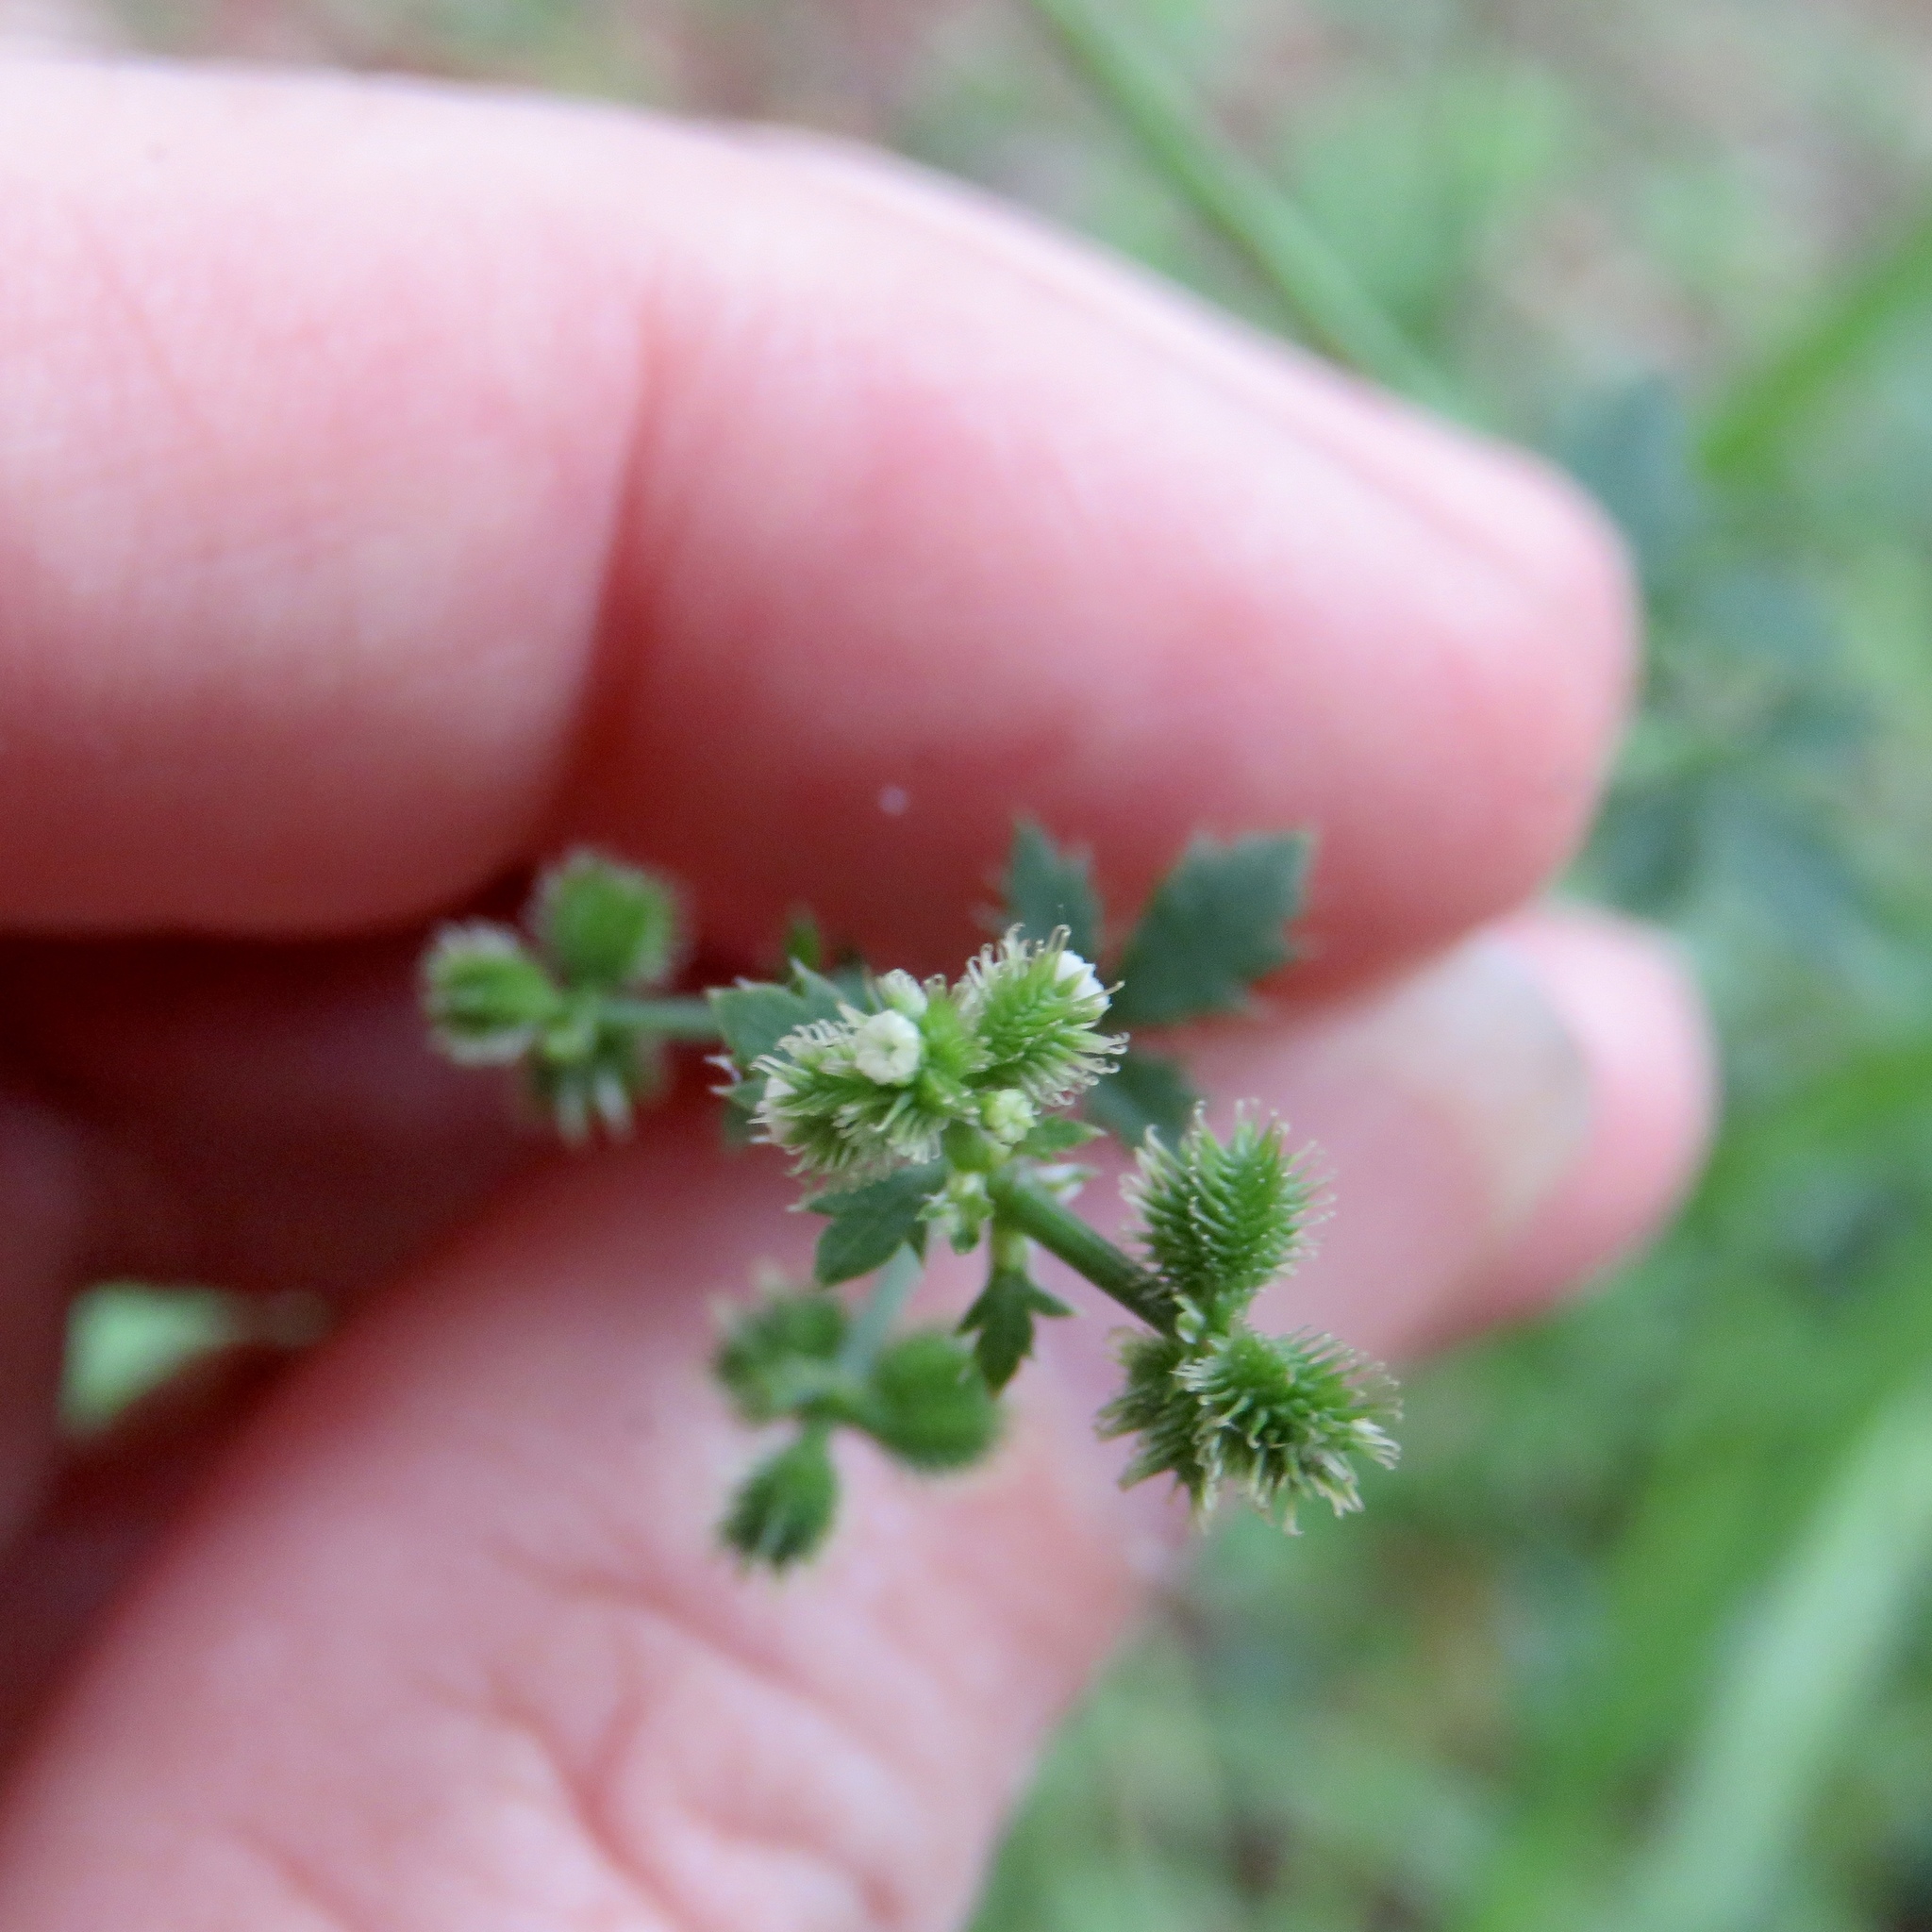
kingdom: Plantae
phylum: Tracheophyta
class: Magnoliopsida
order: Apiales
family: Apiaceae
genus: Sanicula
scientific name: Sanicula canadensis
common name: Canada sanicle
